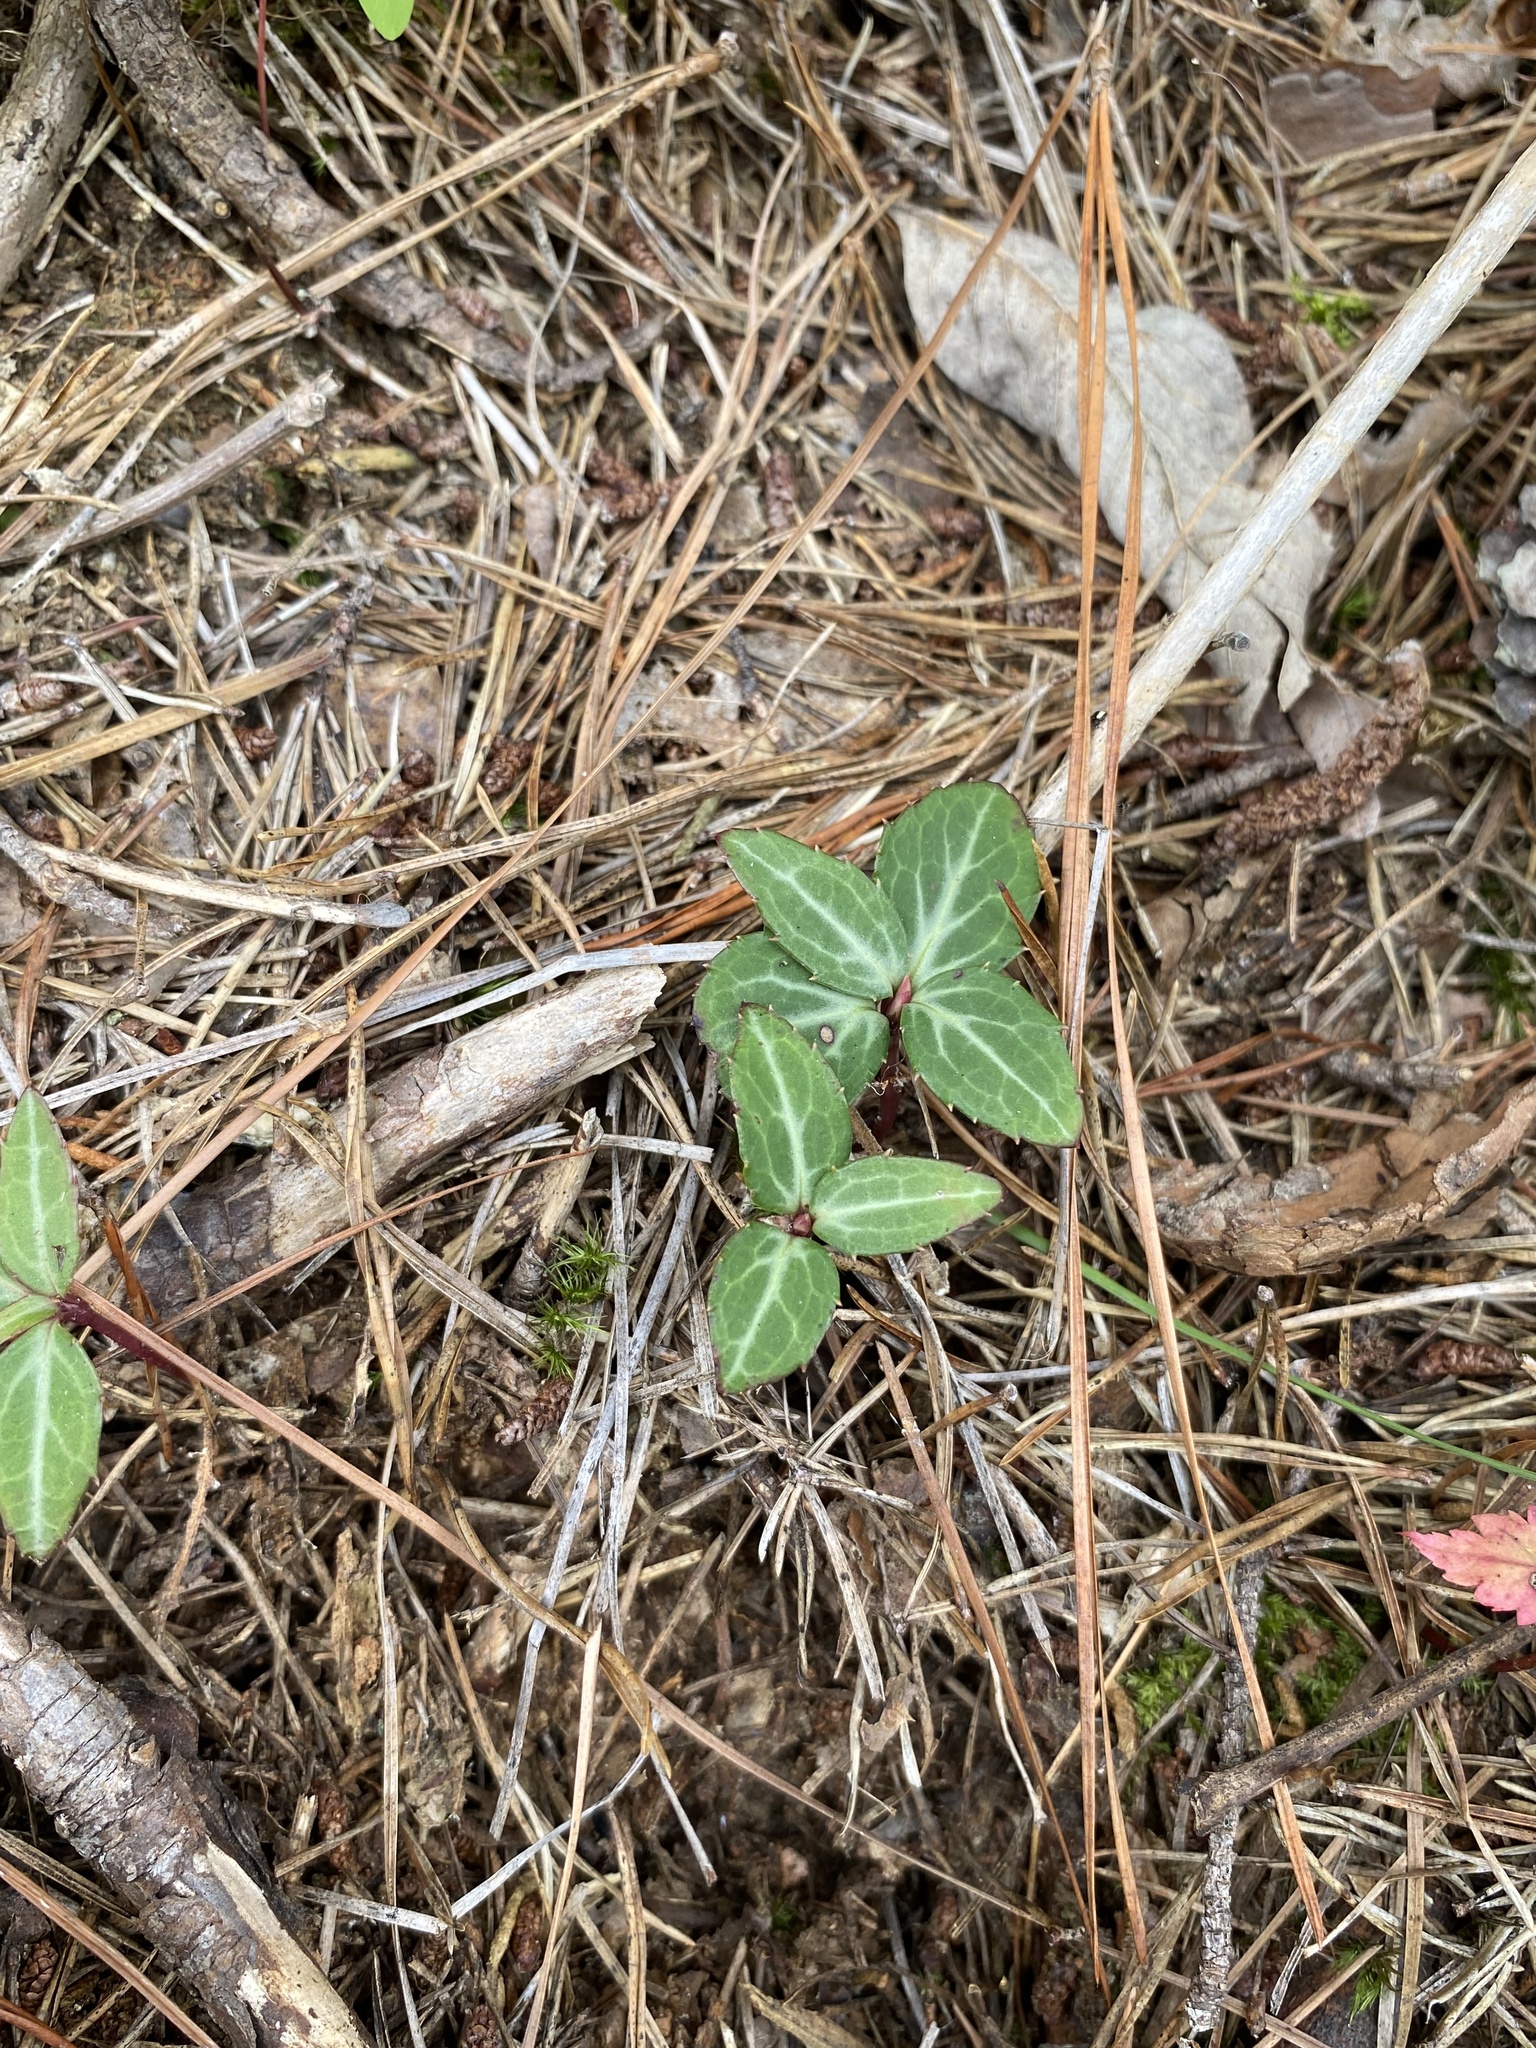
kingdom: Plantae
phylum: Tracheophyta
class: Magnoliopsida
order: Ericales
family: Ericaceae
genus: Chimaphila
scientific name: Chimaphila maculata
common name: Spotted pipsissewa
